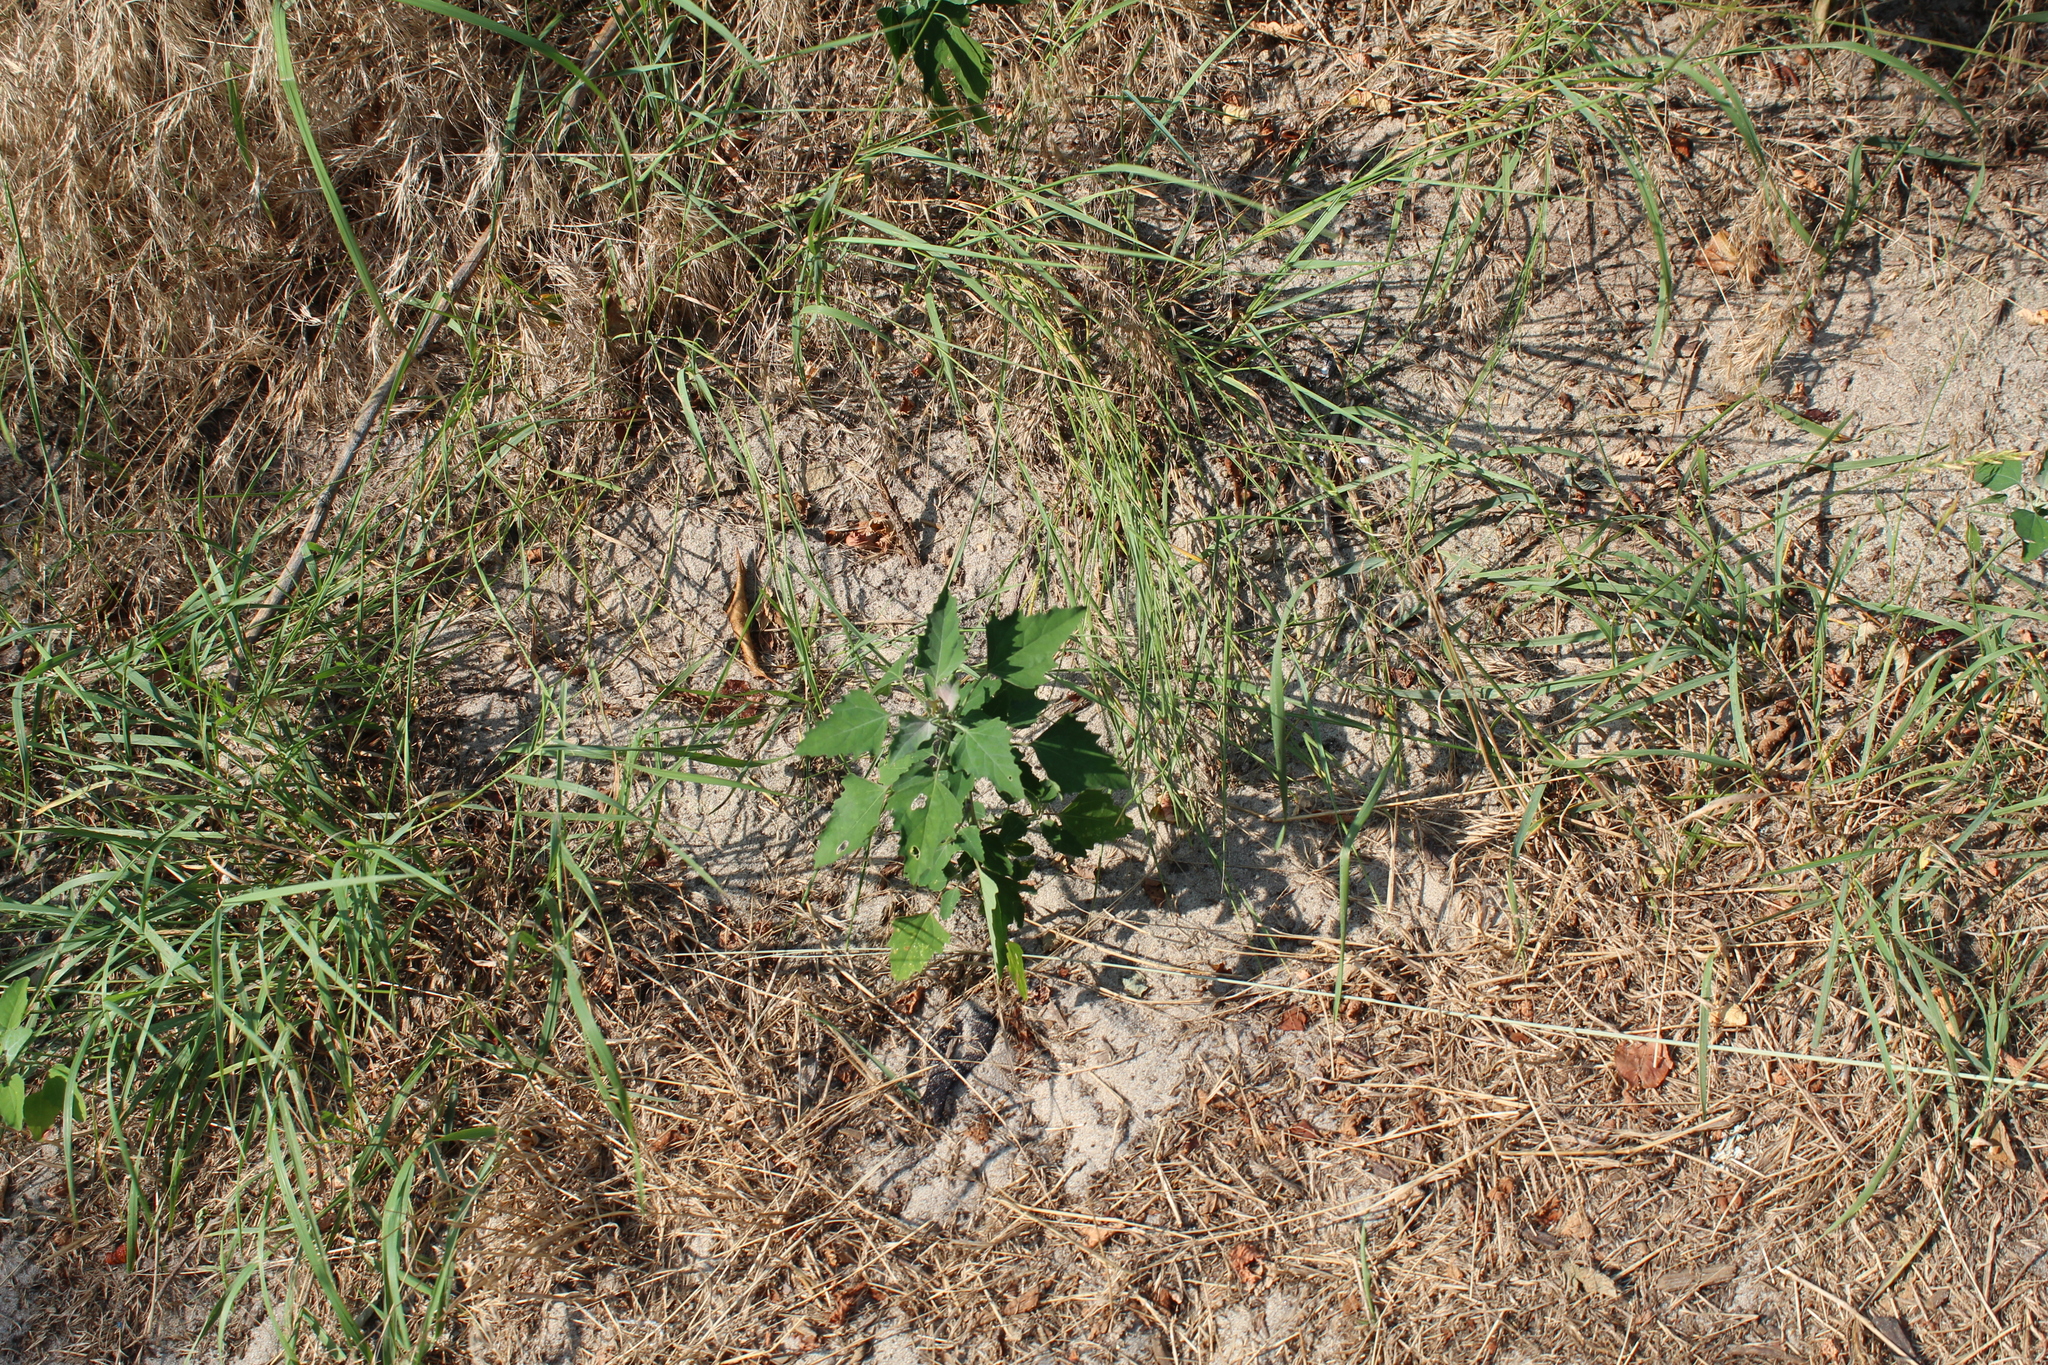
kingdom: Plantae
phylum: Tracheophyta
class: Magnoliopsida
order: Caryophyllales
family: Amaranthaceae
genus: Chenopodium
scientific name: Chenopodium album
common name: Fat-hen
